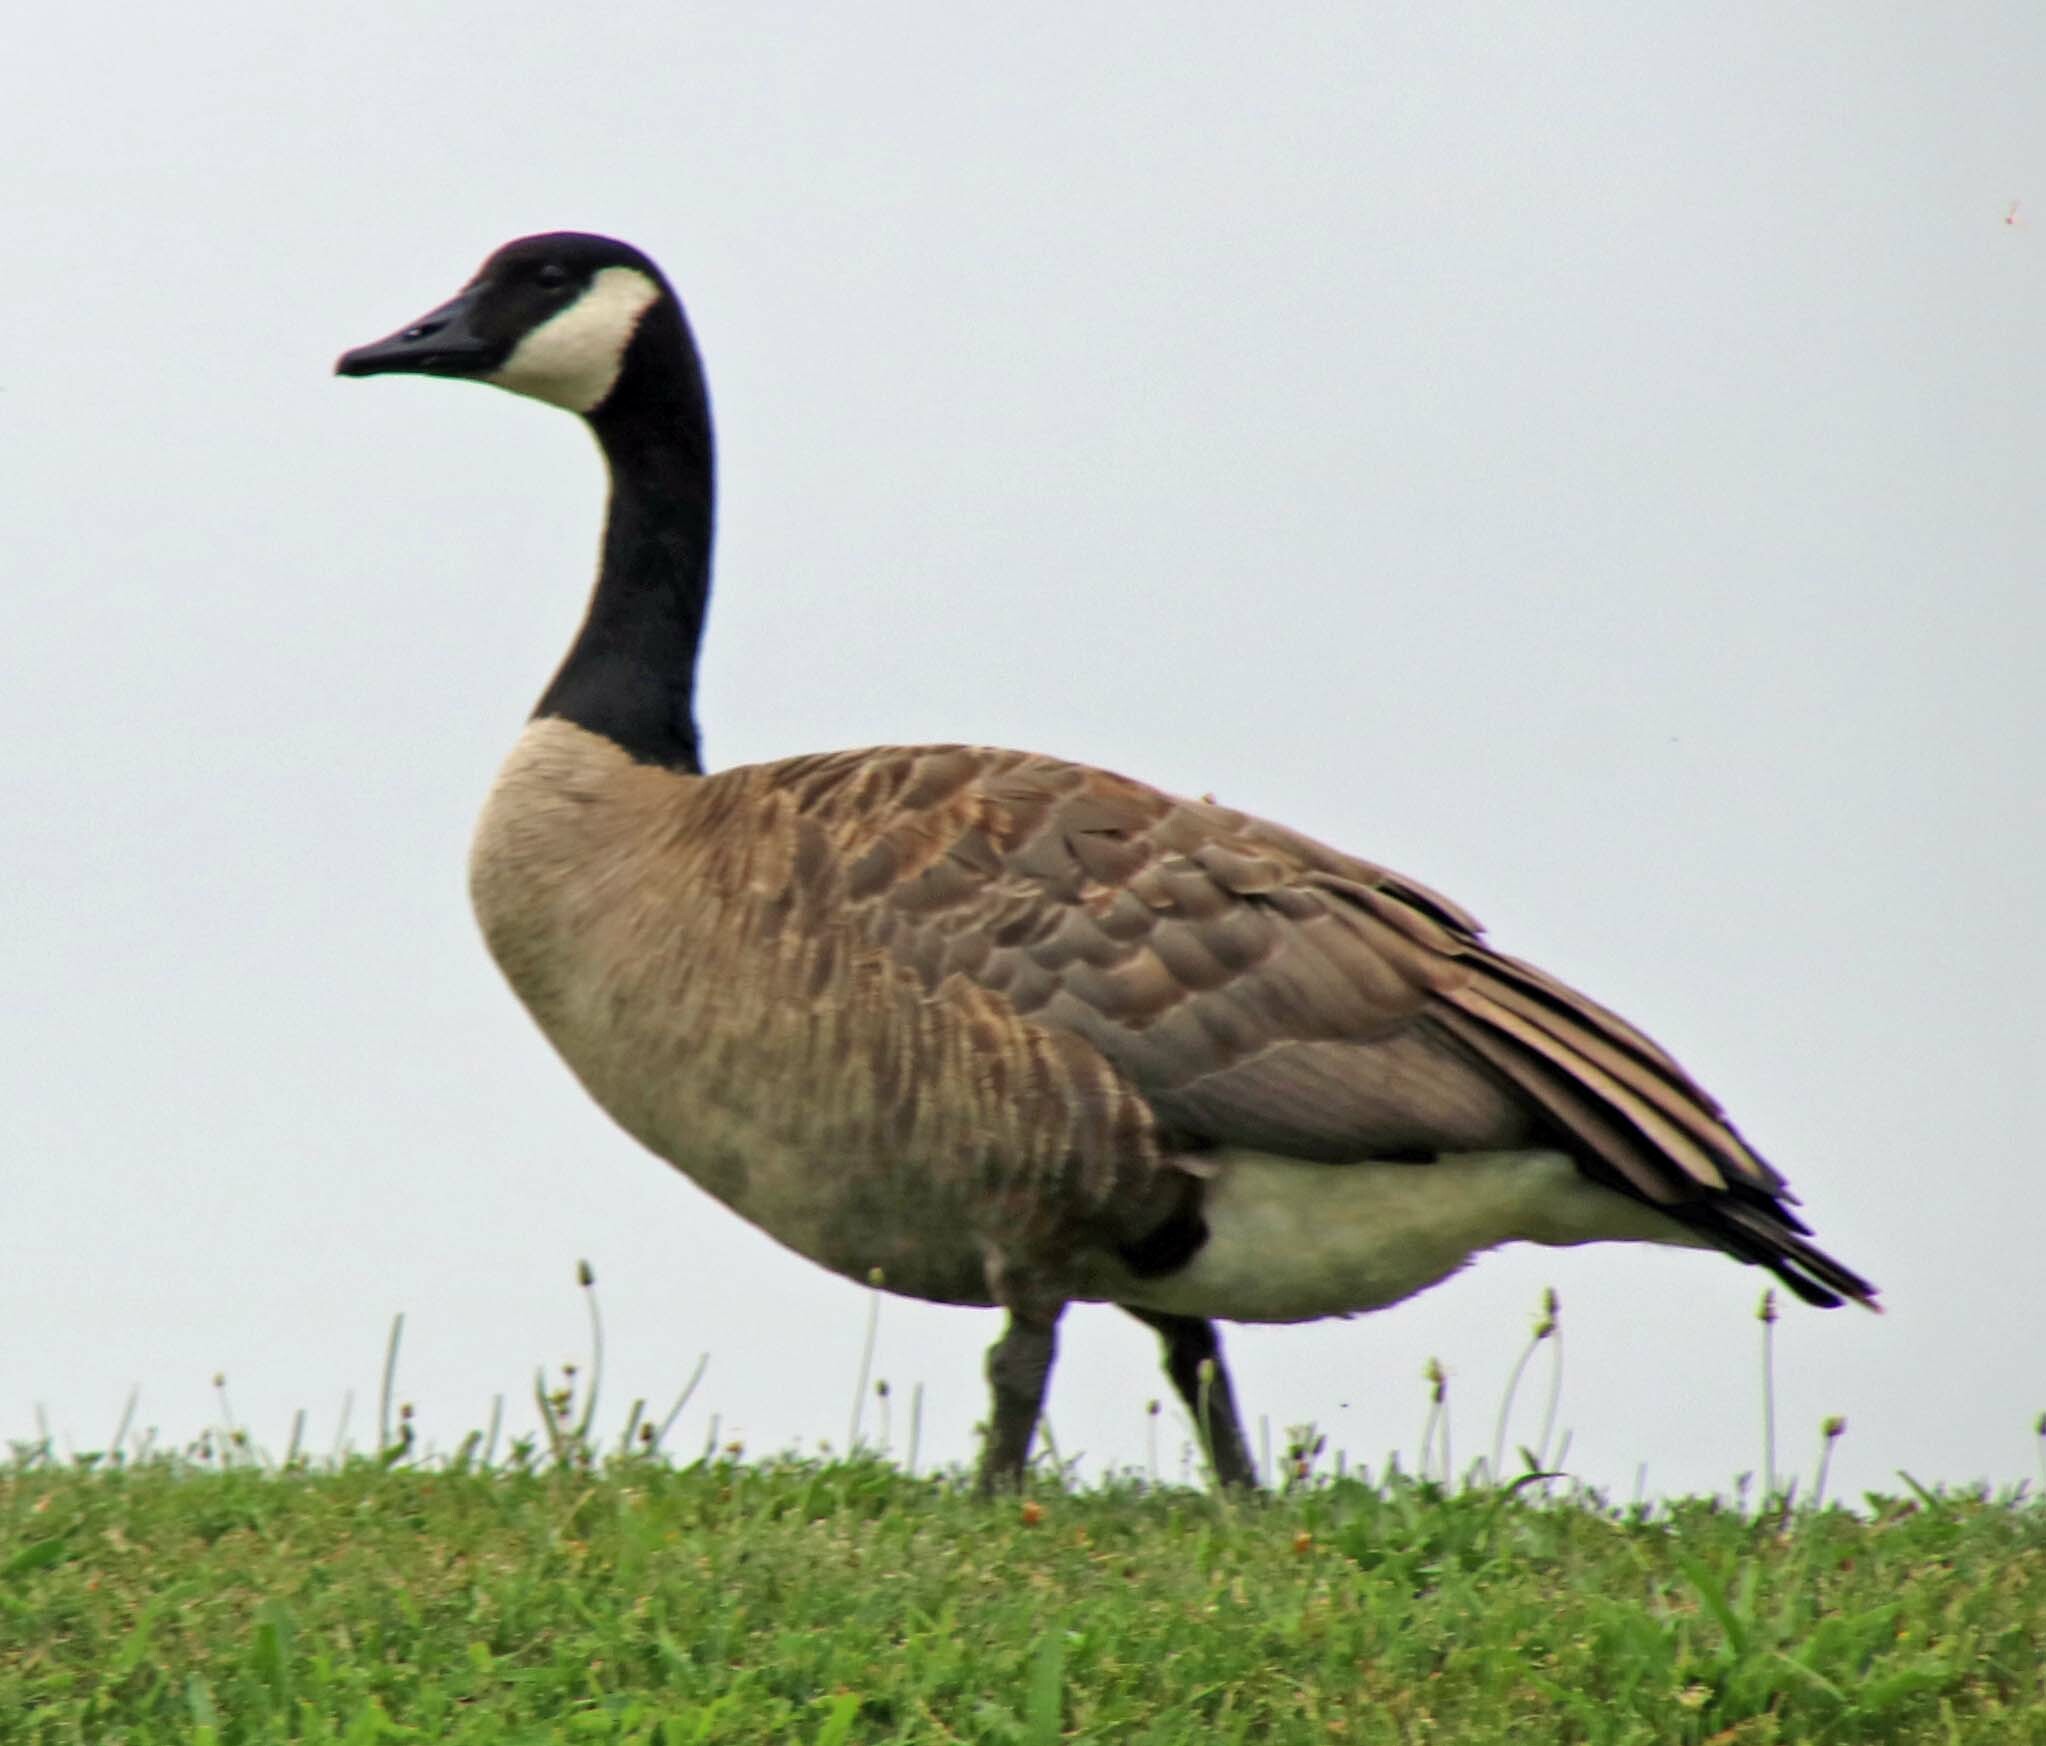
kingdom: Animalia
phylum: Chordata
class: Aves
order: Anseriformes
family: Anatidae
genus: Branta
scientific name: Branta canadensis
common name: Canada goose
